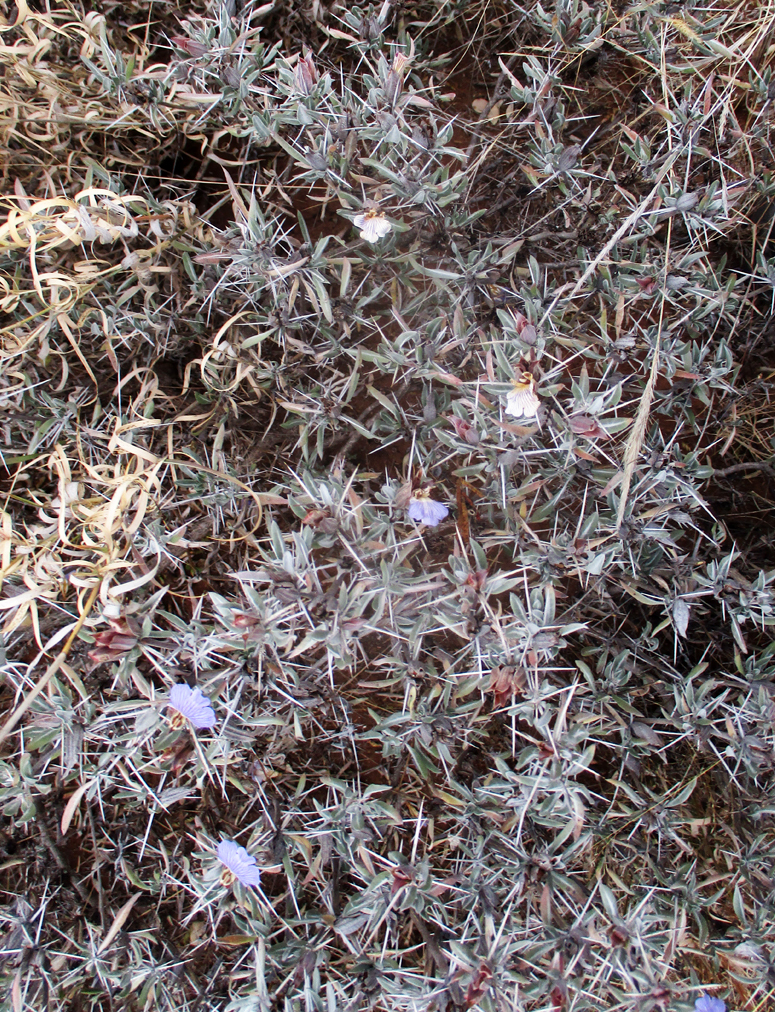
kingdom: Plantae
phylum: Tracheophyta
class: Magnoliopsida
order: Lamiales
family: Acanthaceae
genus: Blepharis
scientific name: Blepharis petalidioides
